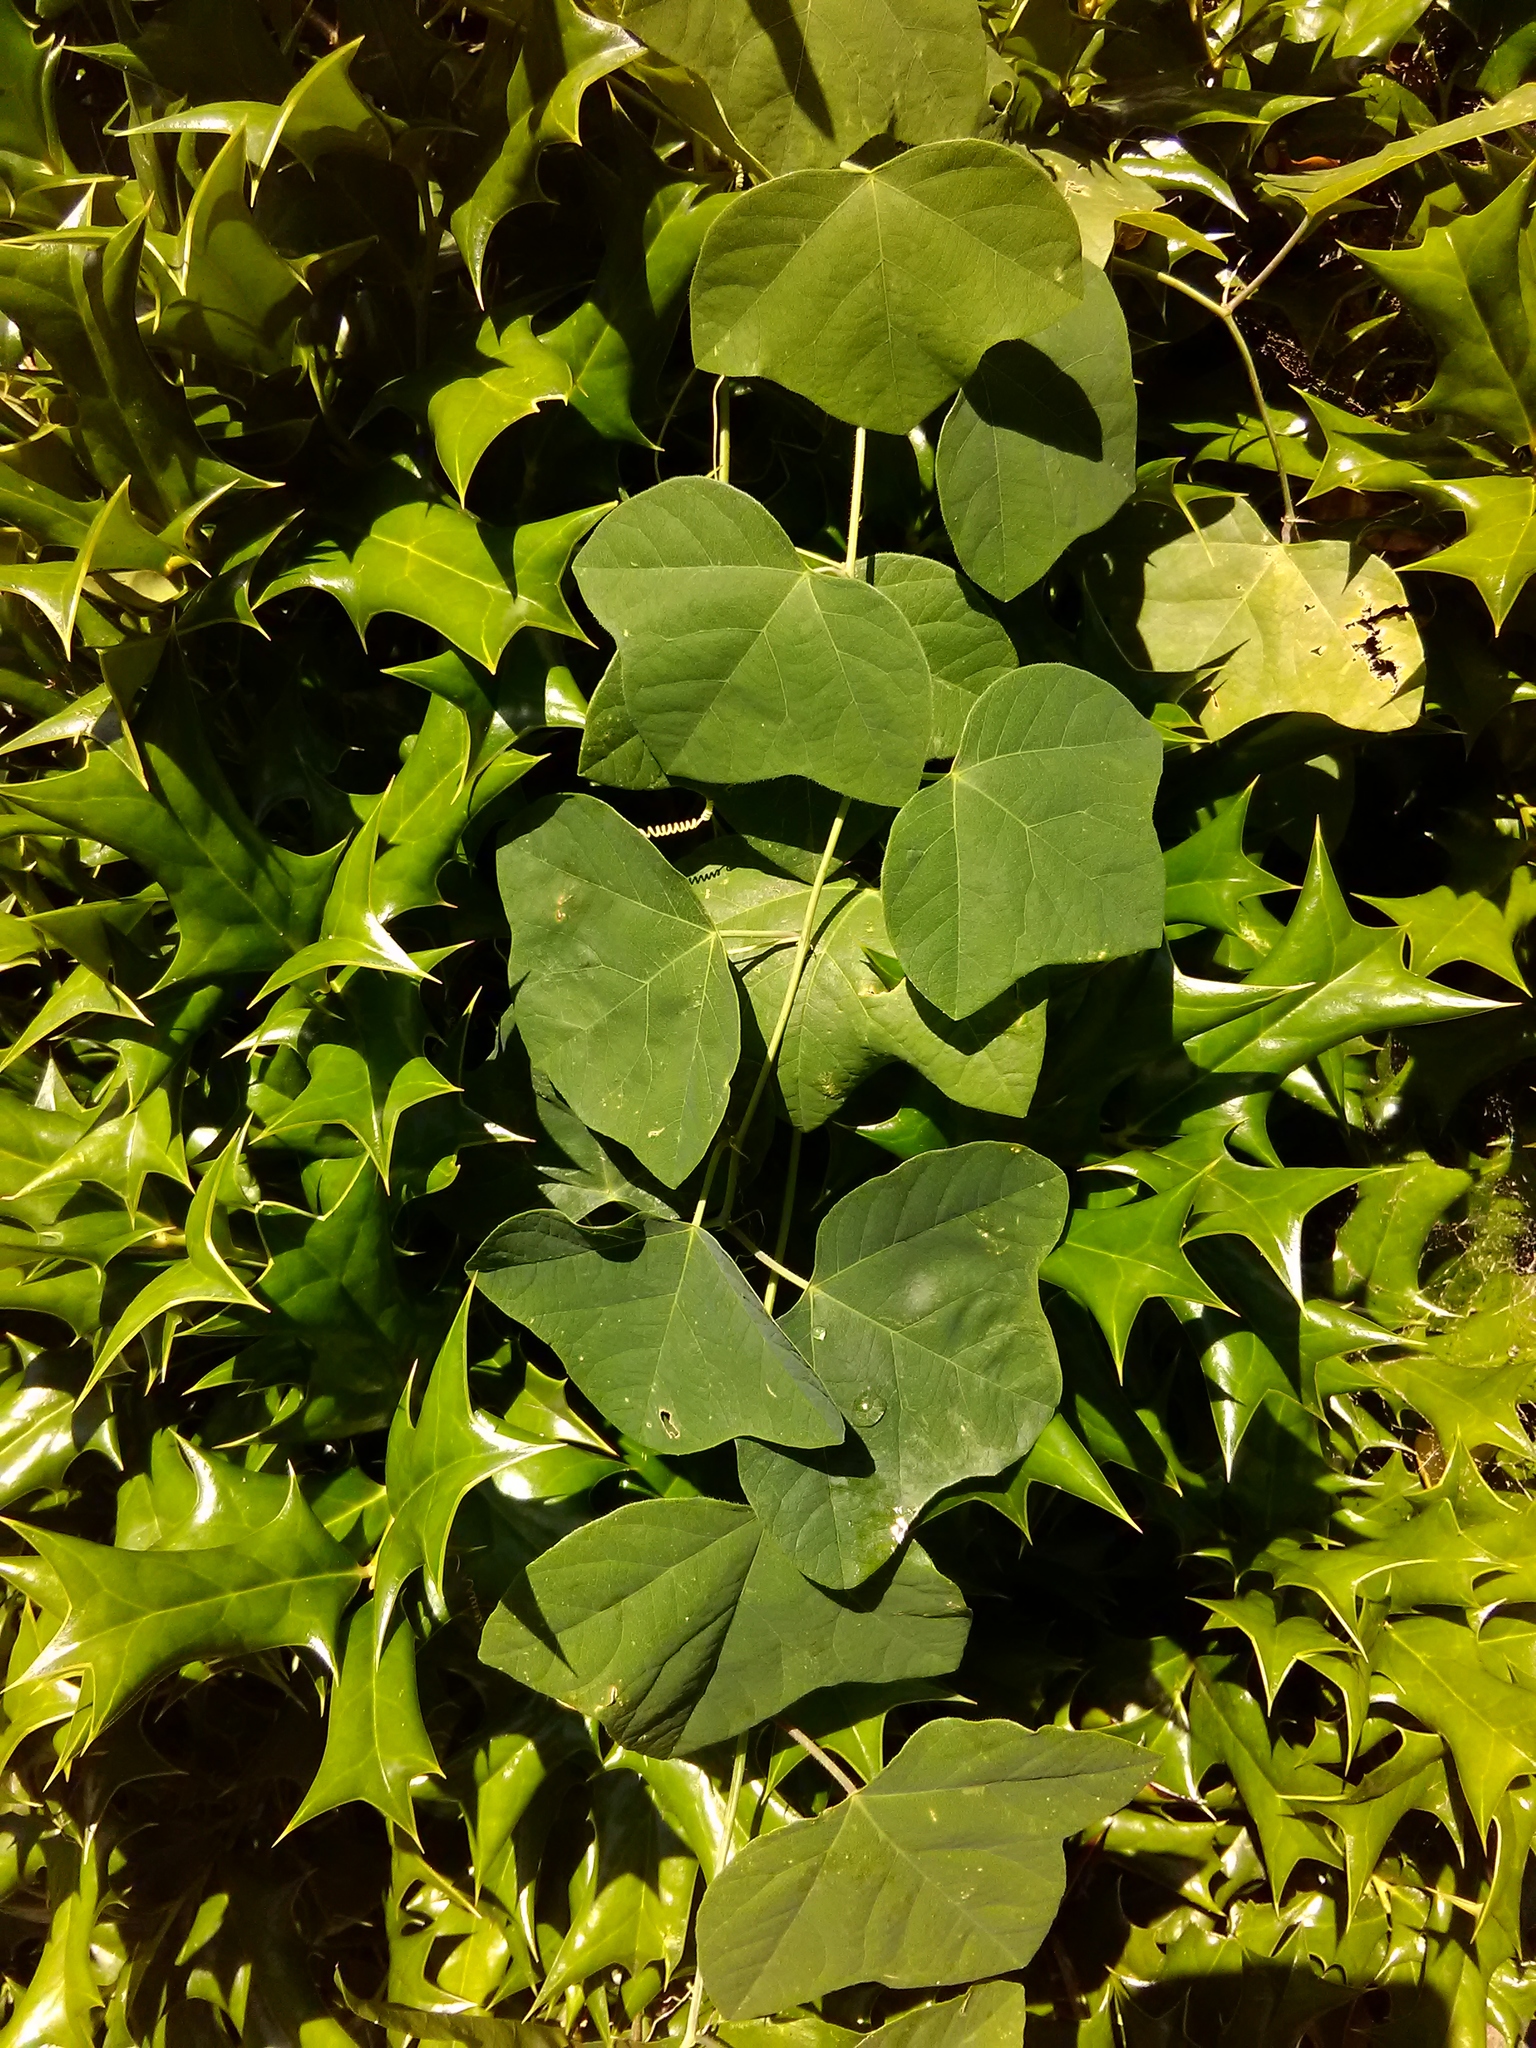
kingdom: Plantae
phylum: Tracheophyta
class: Magnoliopsida
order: Malpighiales
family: Passifloraceae
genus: Passiflora
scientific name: Passiflora lutea
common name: Yellow passionflower
